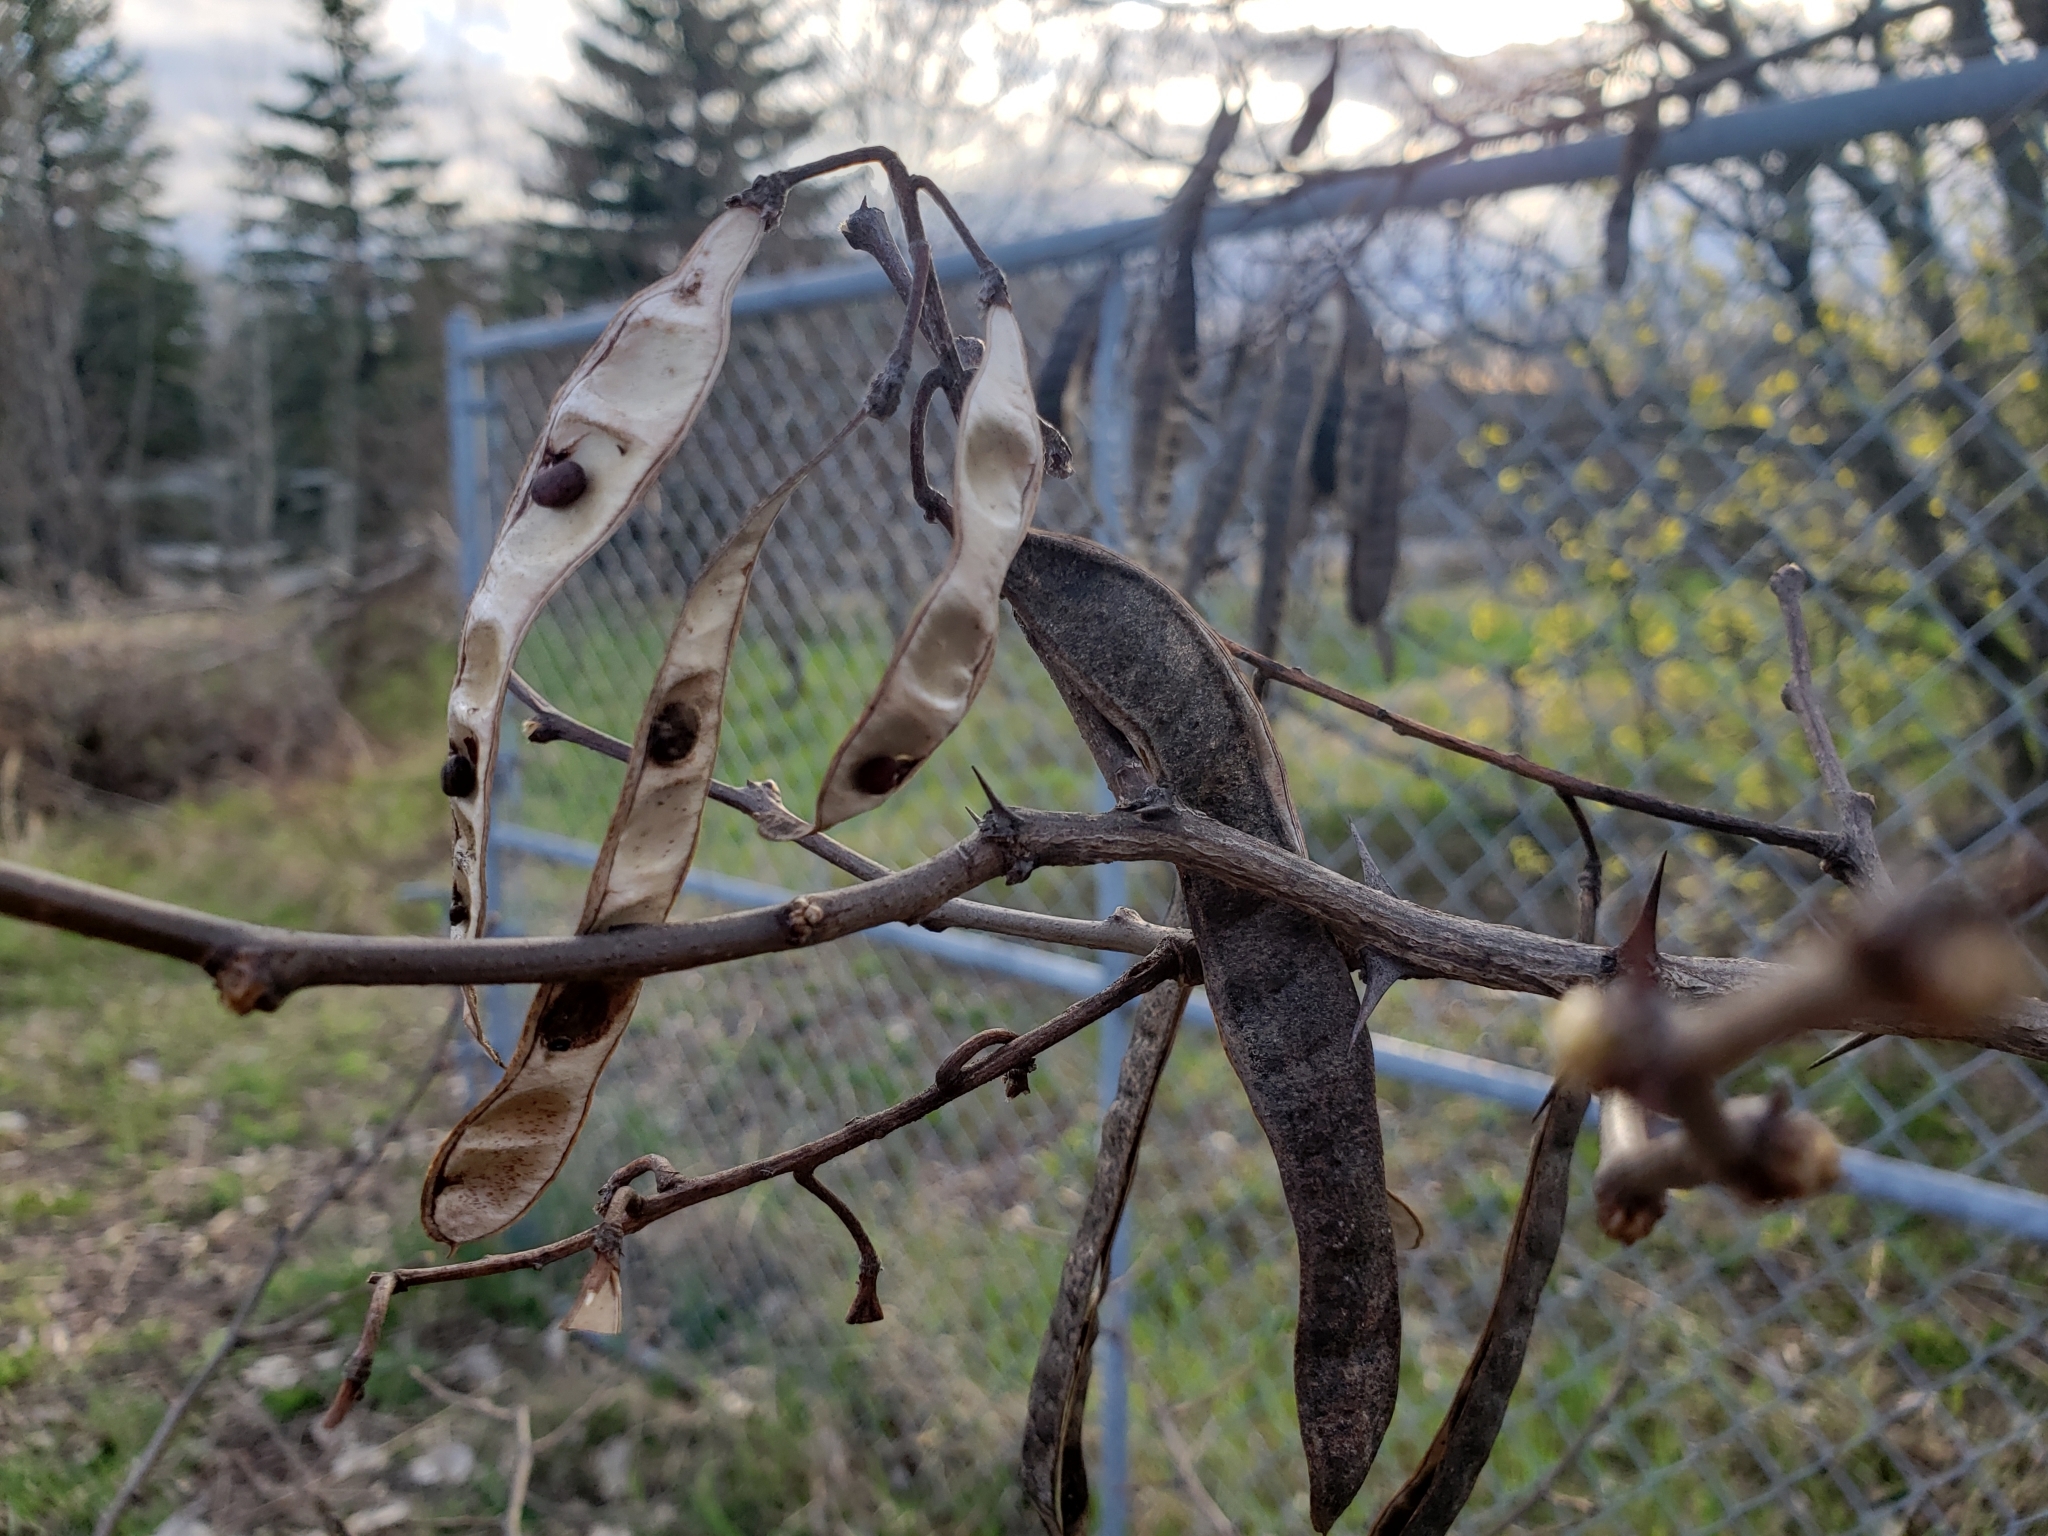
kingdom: Plantae
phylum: Tracheophyta
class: Magnoliopsida
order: Fabales
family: Fabaceae
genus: Robinia
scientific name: Robinia pseudoacacia
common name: Black locust
